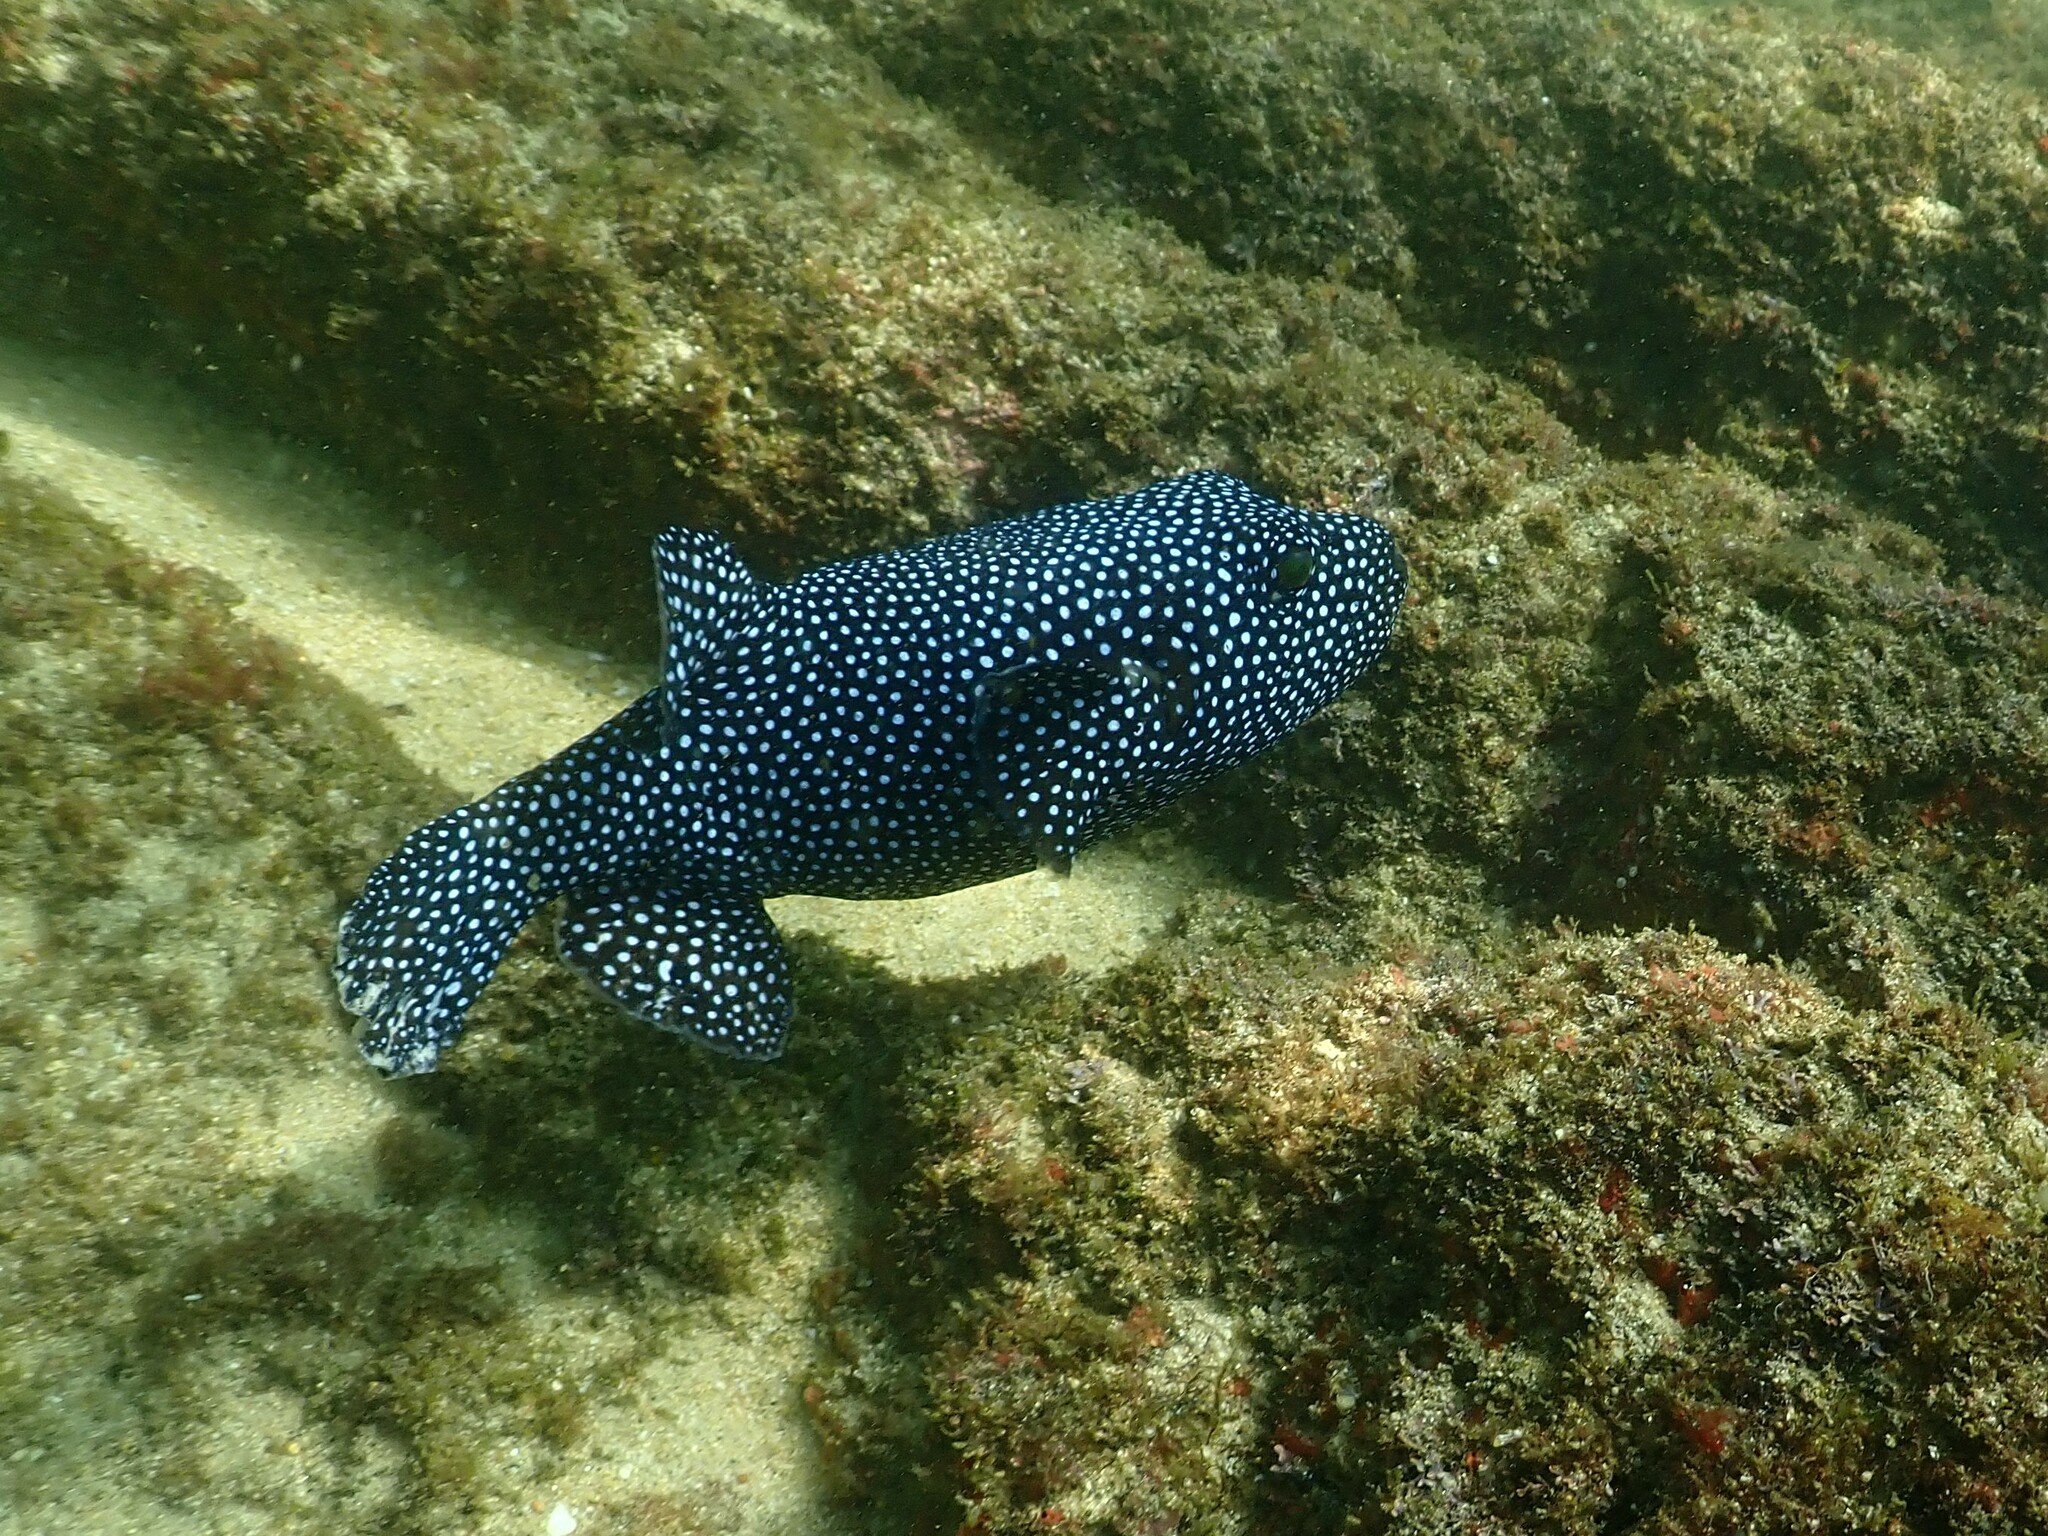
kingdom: Animalia
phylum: Chordata
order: Tetraodontiformes
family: Tetraodontidae
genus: Arothron
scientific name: Arothron meleagris
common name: Guinea-fowl pufferfish
